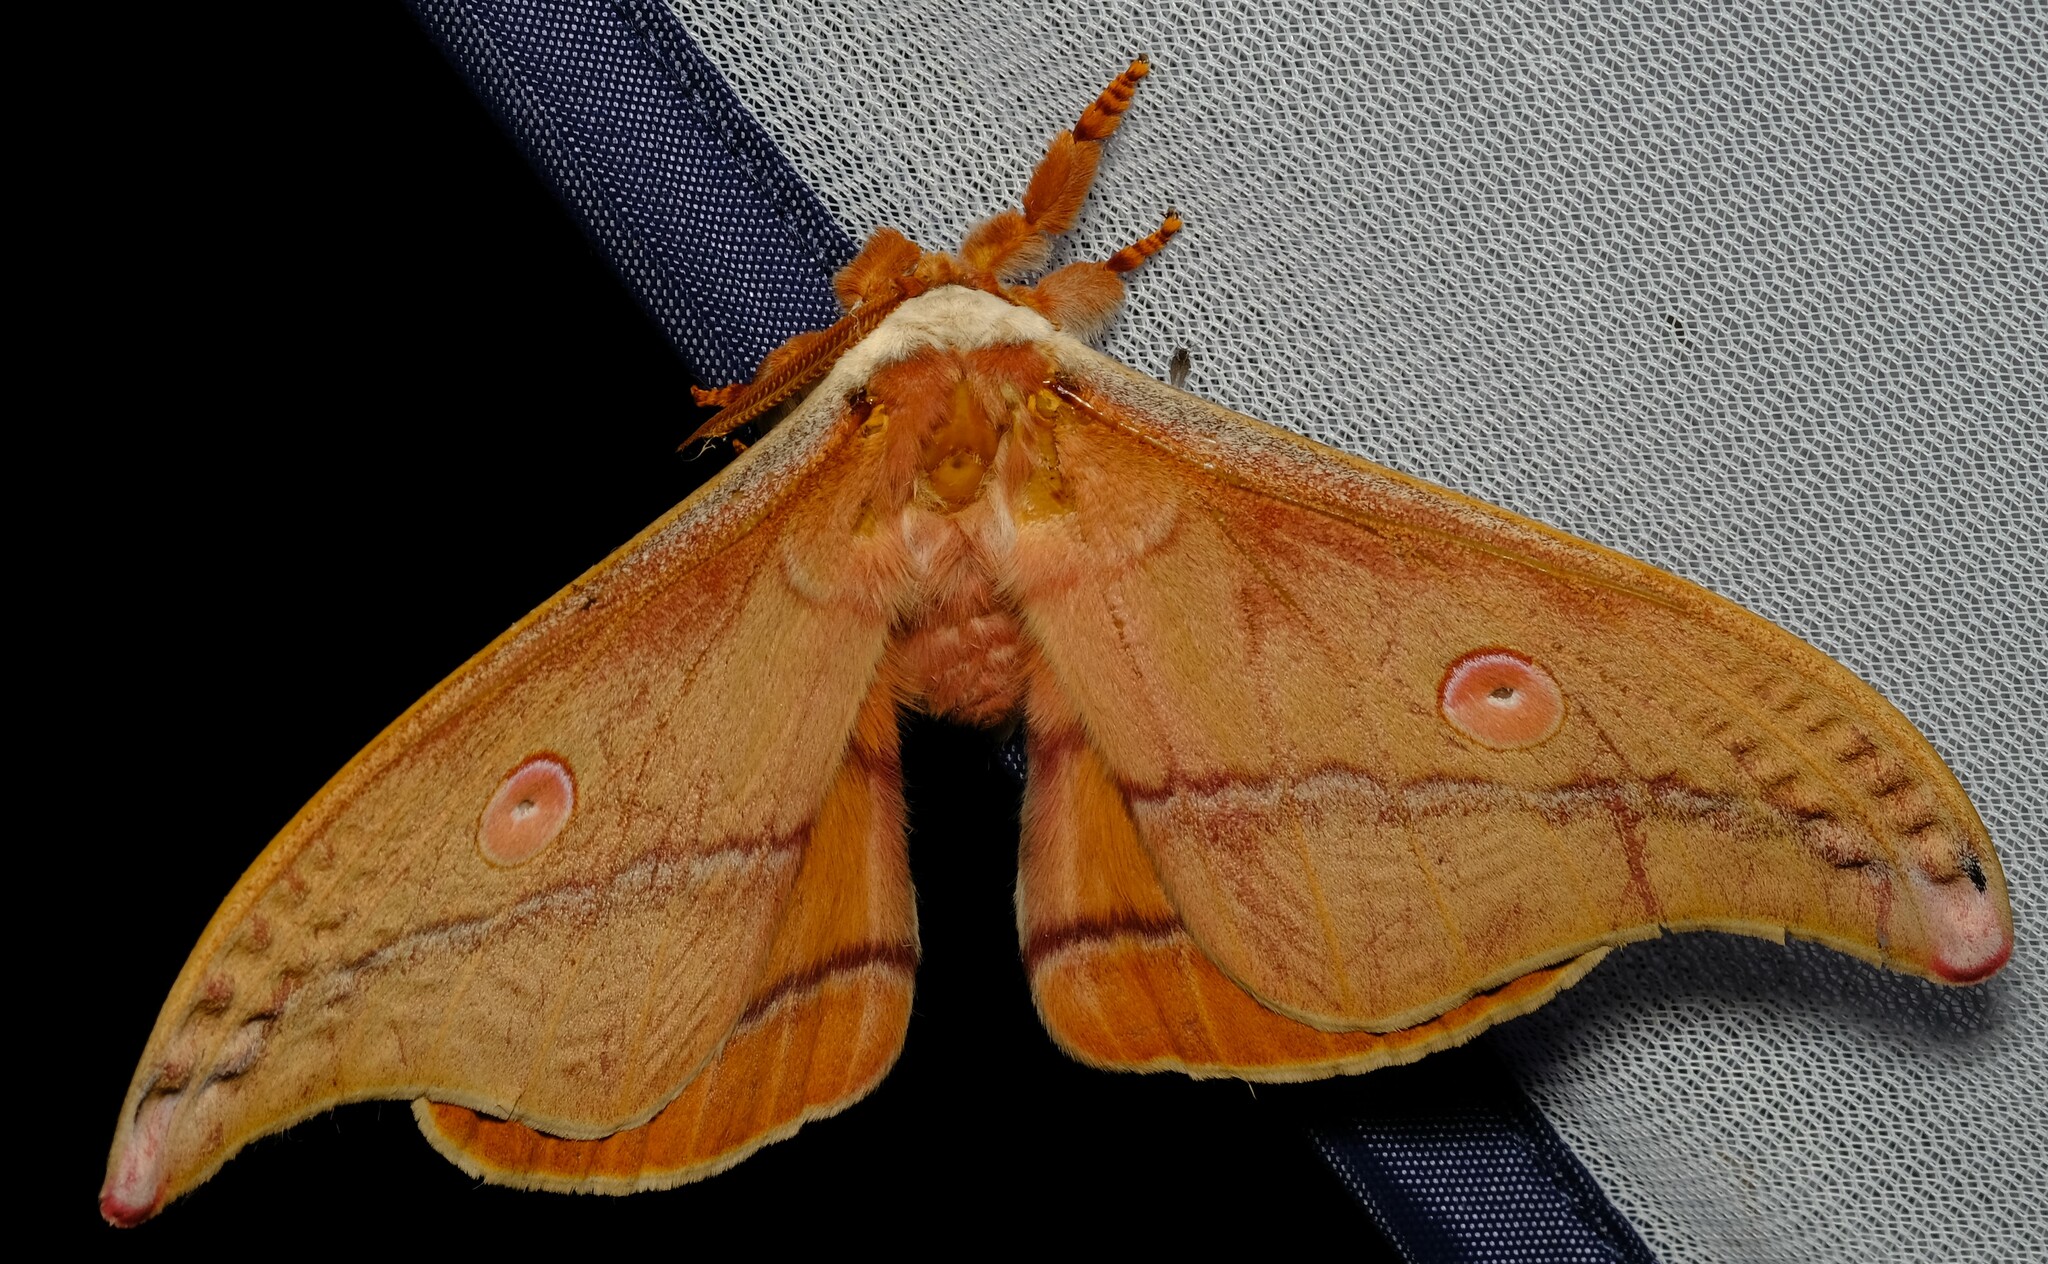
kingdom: Animalia
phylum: Arthropoda
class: Insecta
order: Lepidoptera
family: Saturniidae
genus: Opodiphthera
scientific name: Opodiphthera
